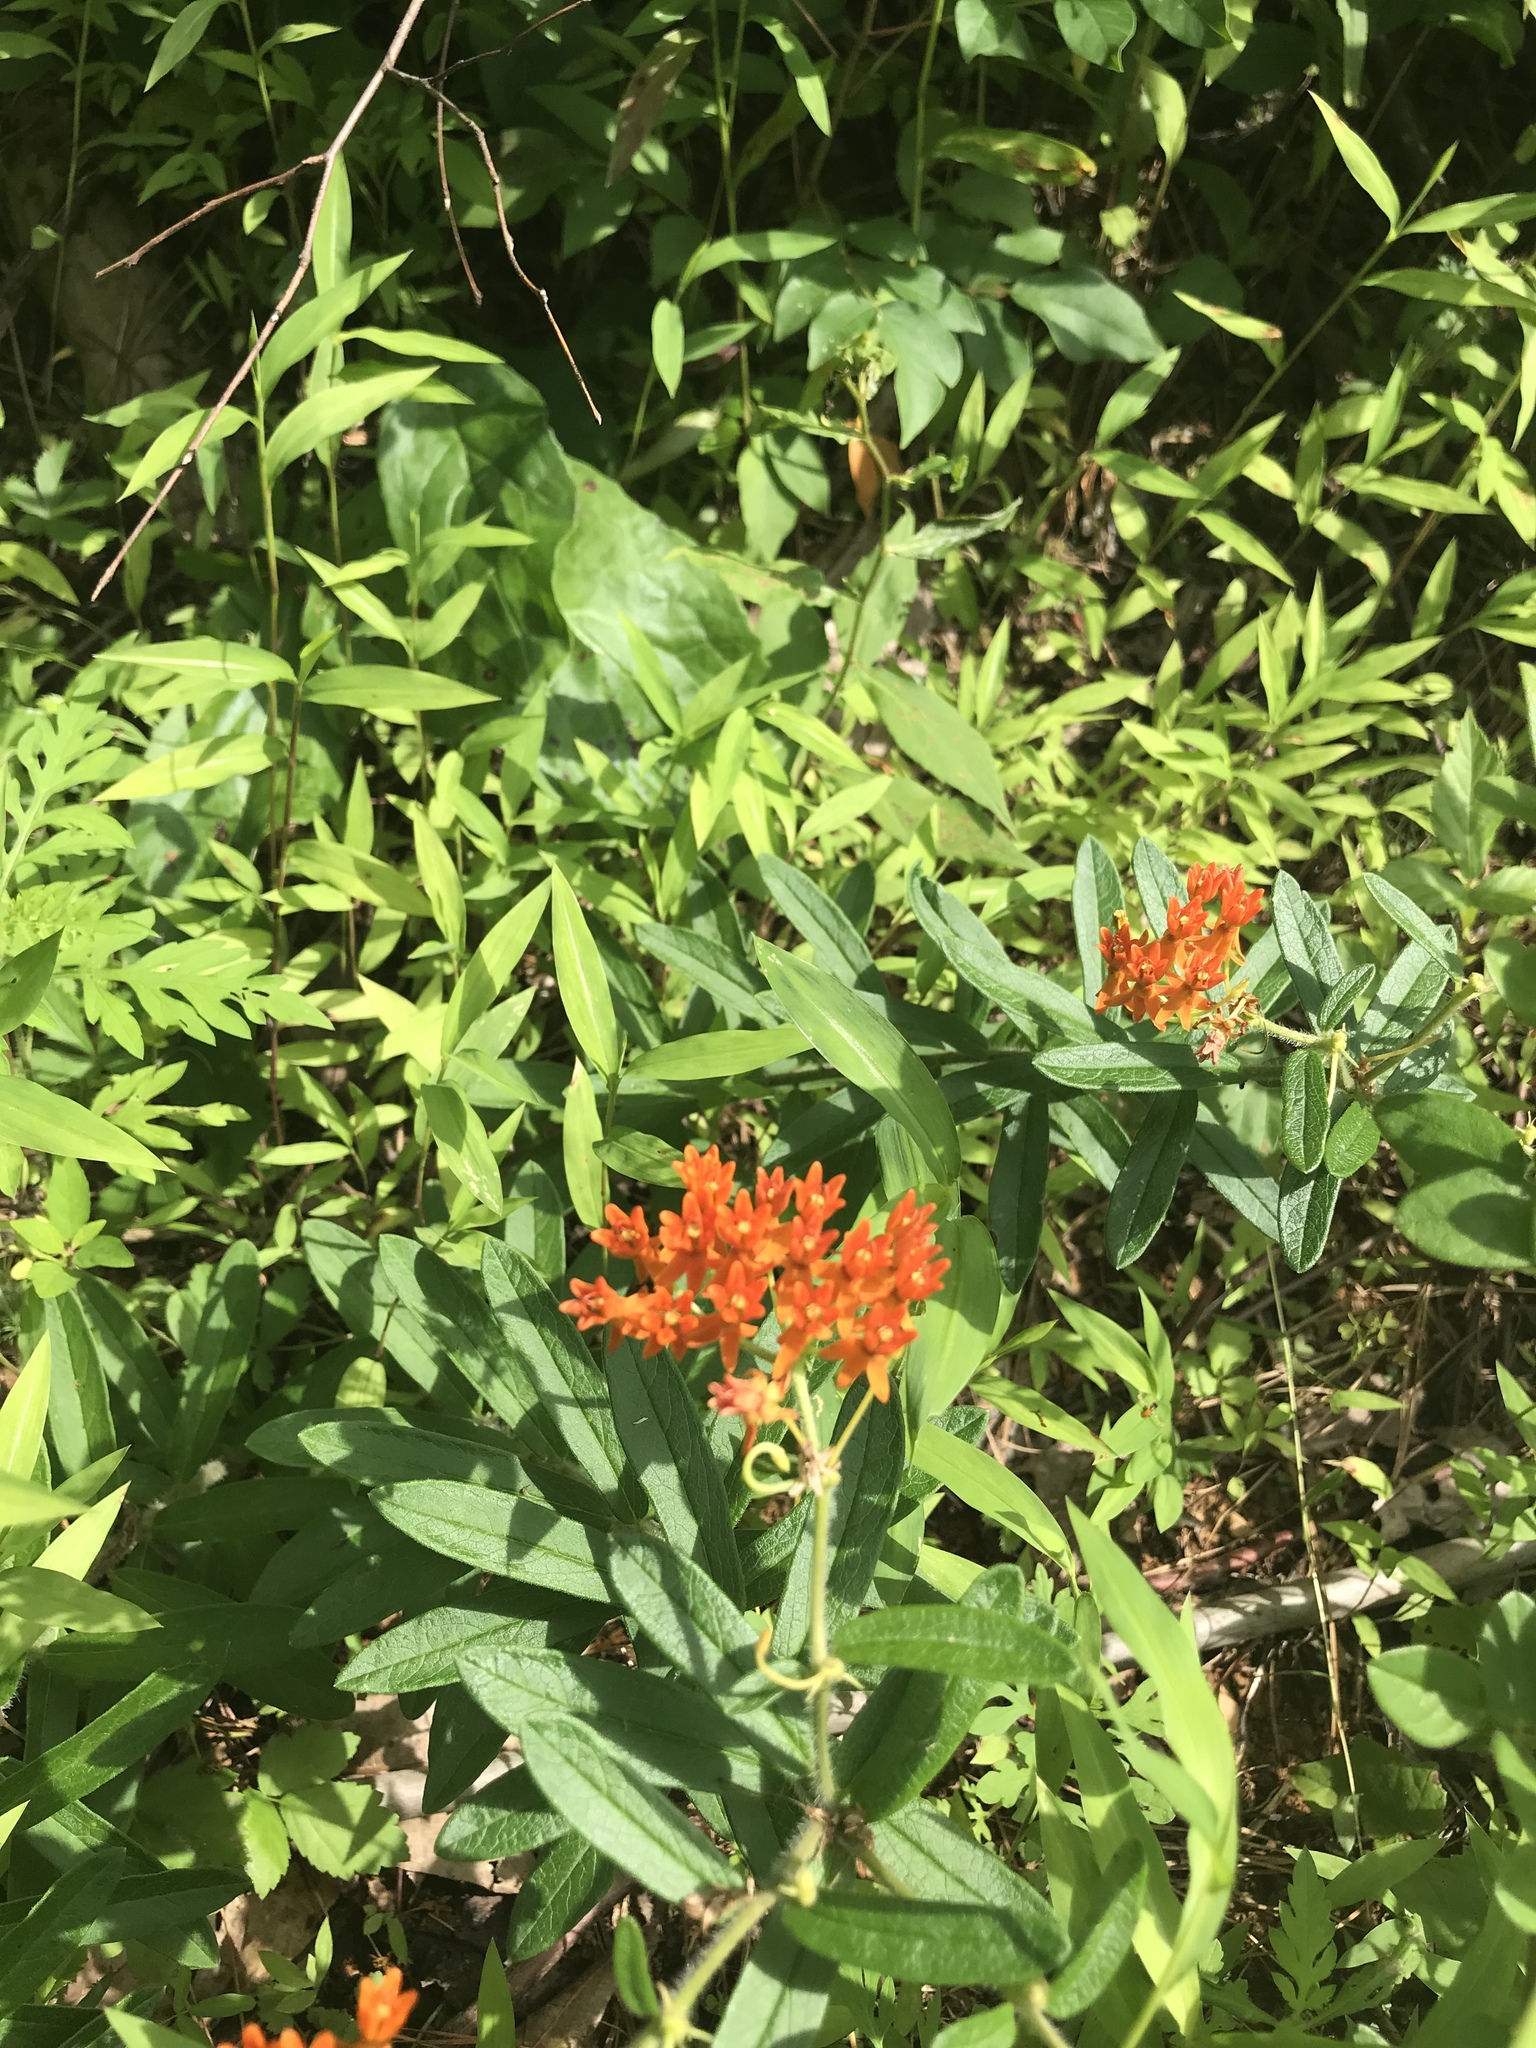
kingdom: Plantae
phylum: Tracheophyta
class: Magnoliopsida
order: Gentianales
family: Apocynaceae
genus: Asclepias
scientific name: Asclepias tuberosa
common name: Butterfly milkweed
